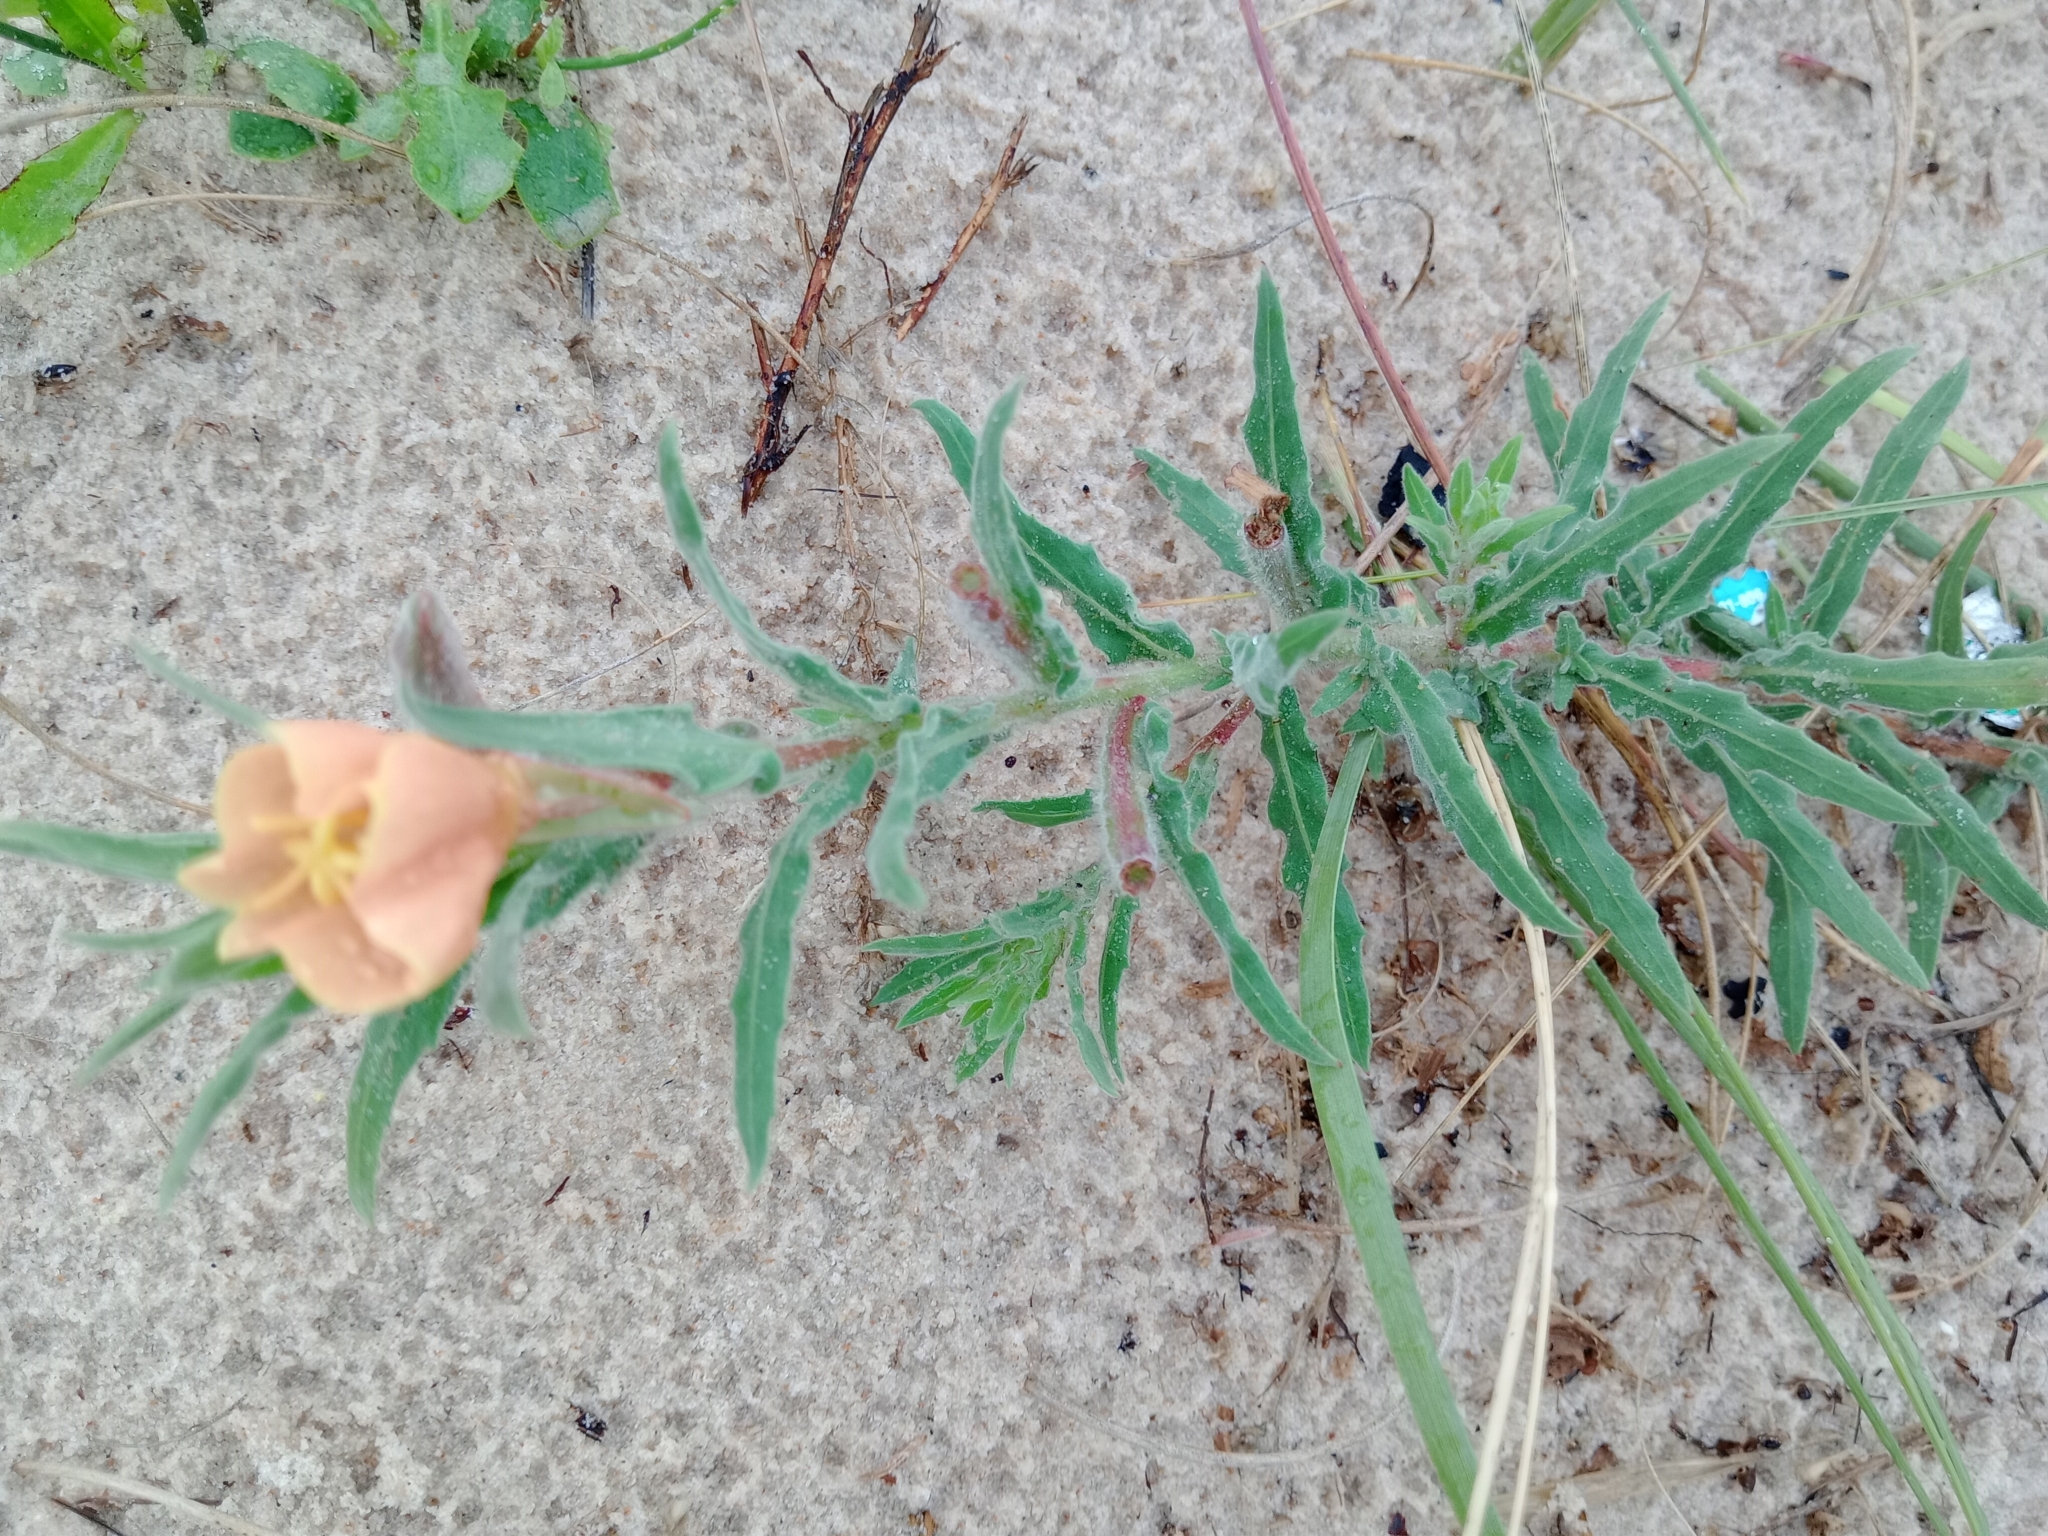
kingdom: Plantae
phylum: Tracheophyta
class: Magnoliopsida
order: Myrtales
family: Onagraceae
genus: Oenothera
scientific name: Oenothera mollissima
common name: Argentine evening primrose
